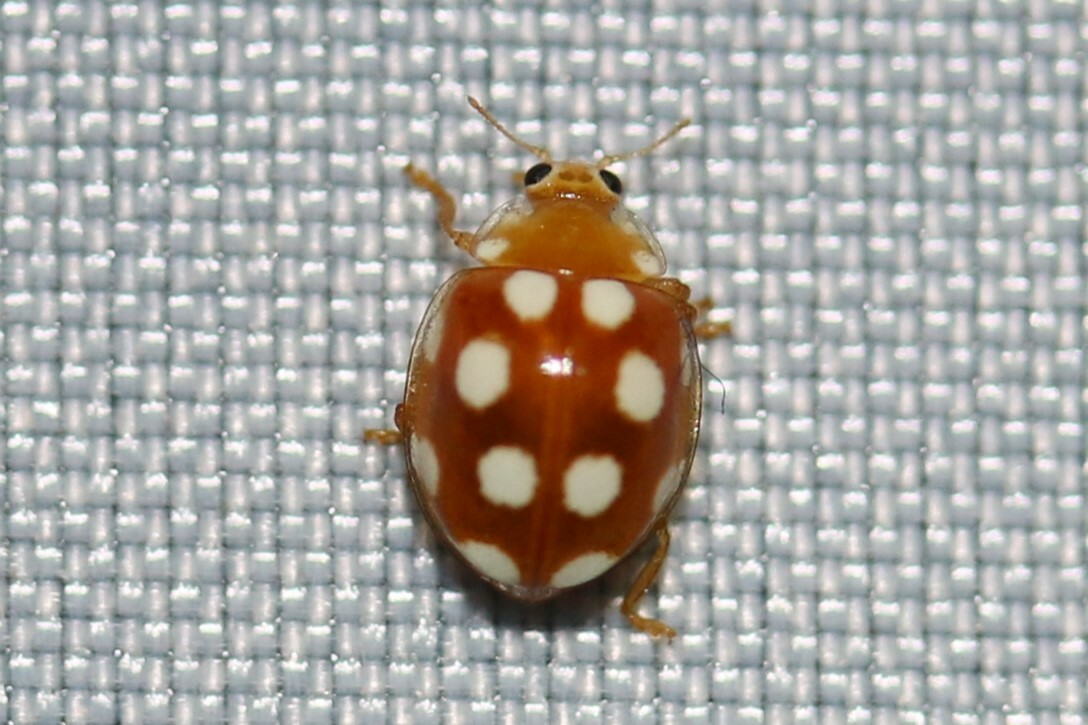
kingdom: Animalia
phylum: Arthropoda
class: Insecta
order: Coleoptera
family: Coccinellidae
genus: Vibidia
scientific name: Vibidia duodecimguttata
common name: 12-spot ladybird
